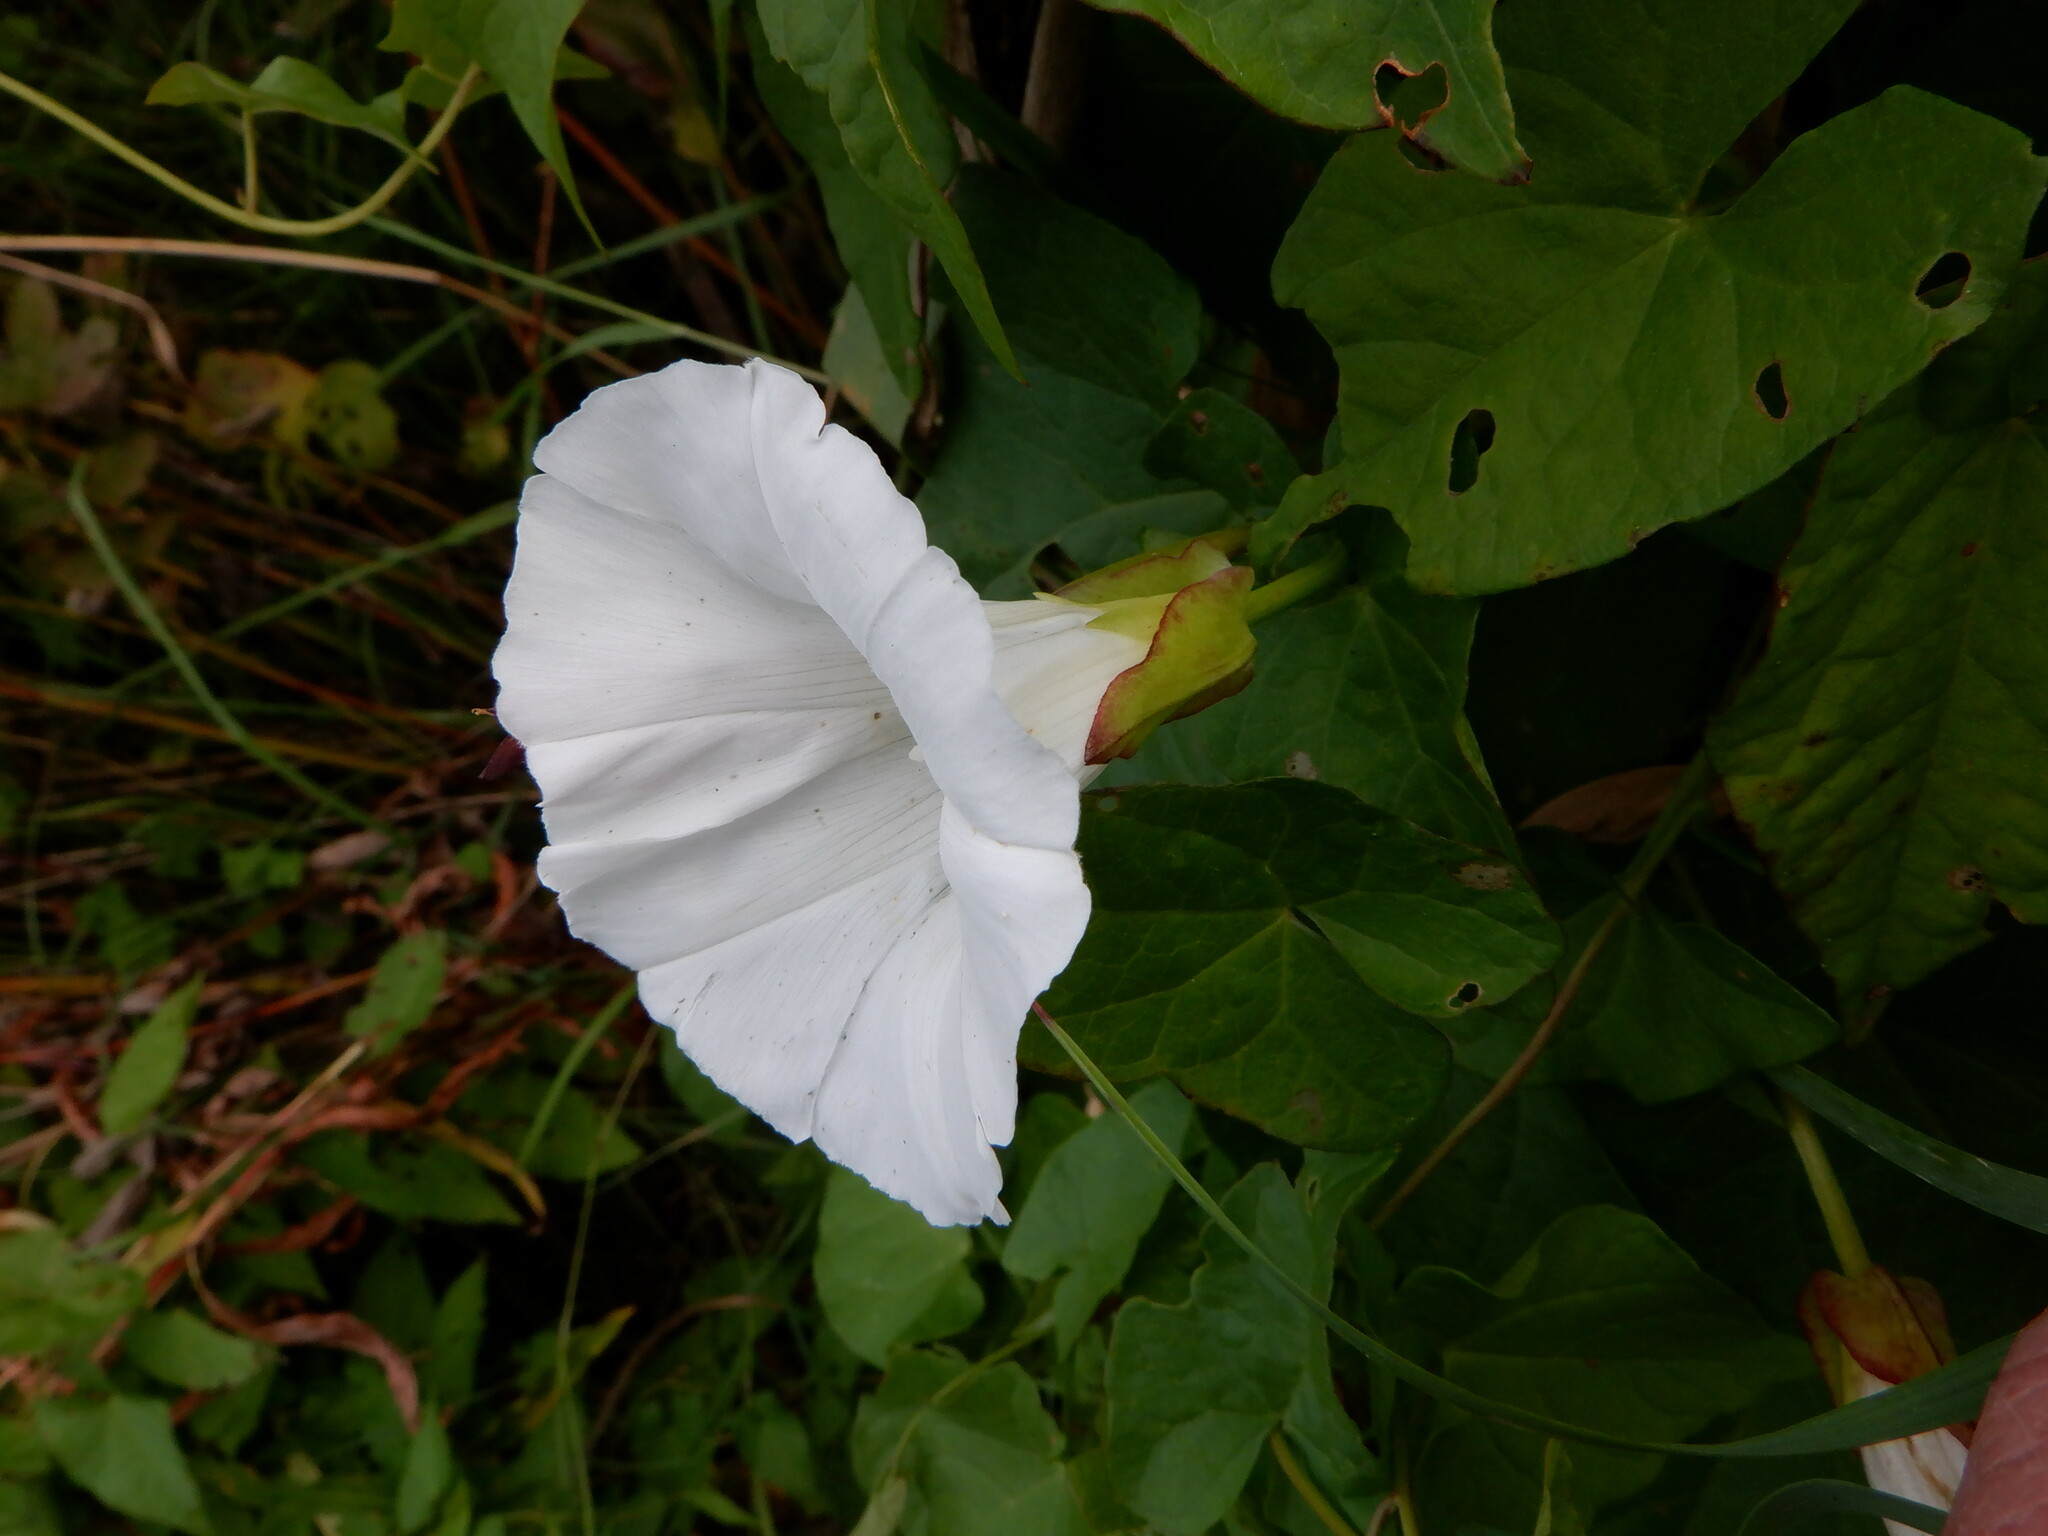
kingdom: Plantae
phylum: Tracheophyta
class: Magnoliopsida
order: Solanales
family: Convolvulaceae
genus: Calystegia
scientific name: Calystegia sepium
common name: Hedge bindweed
